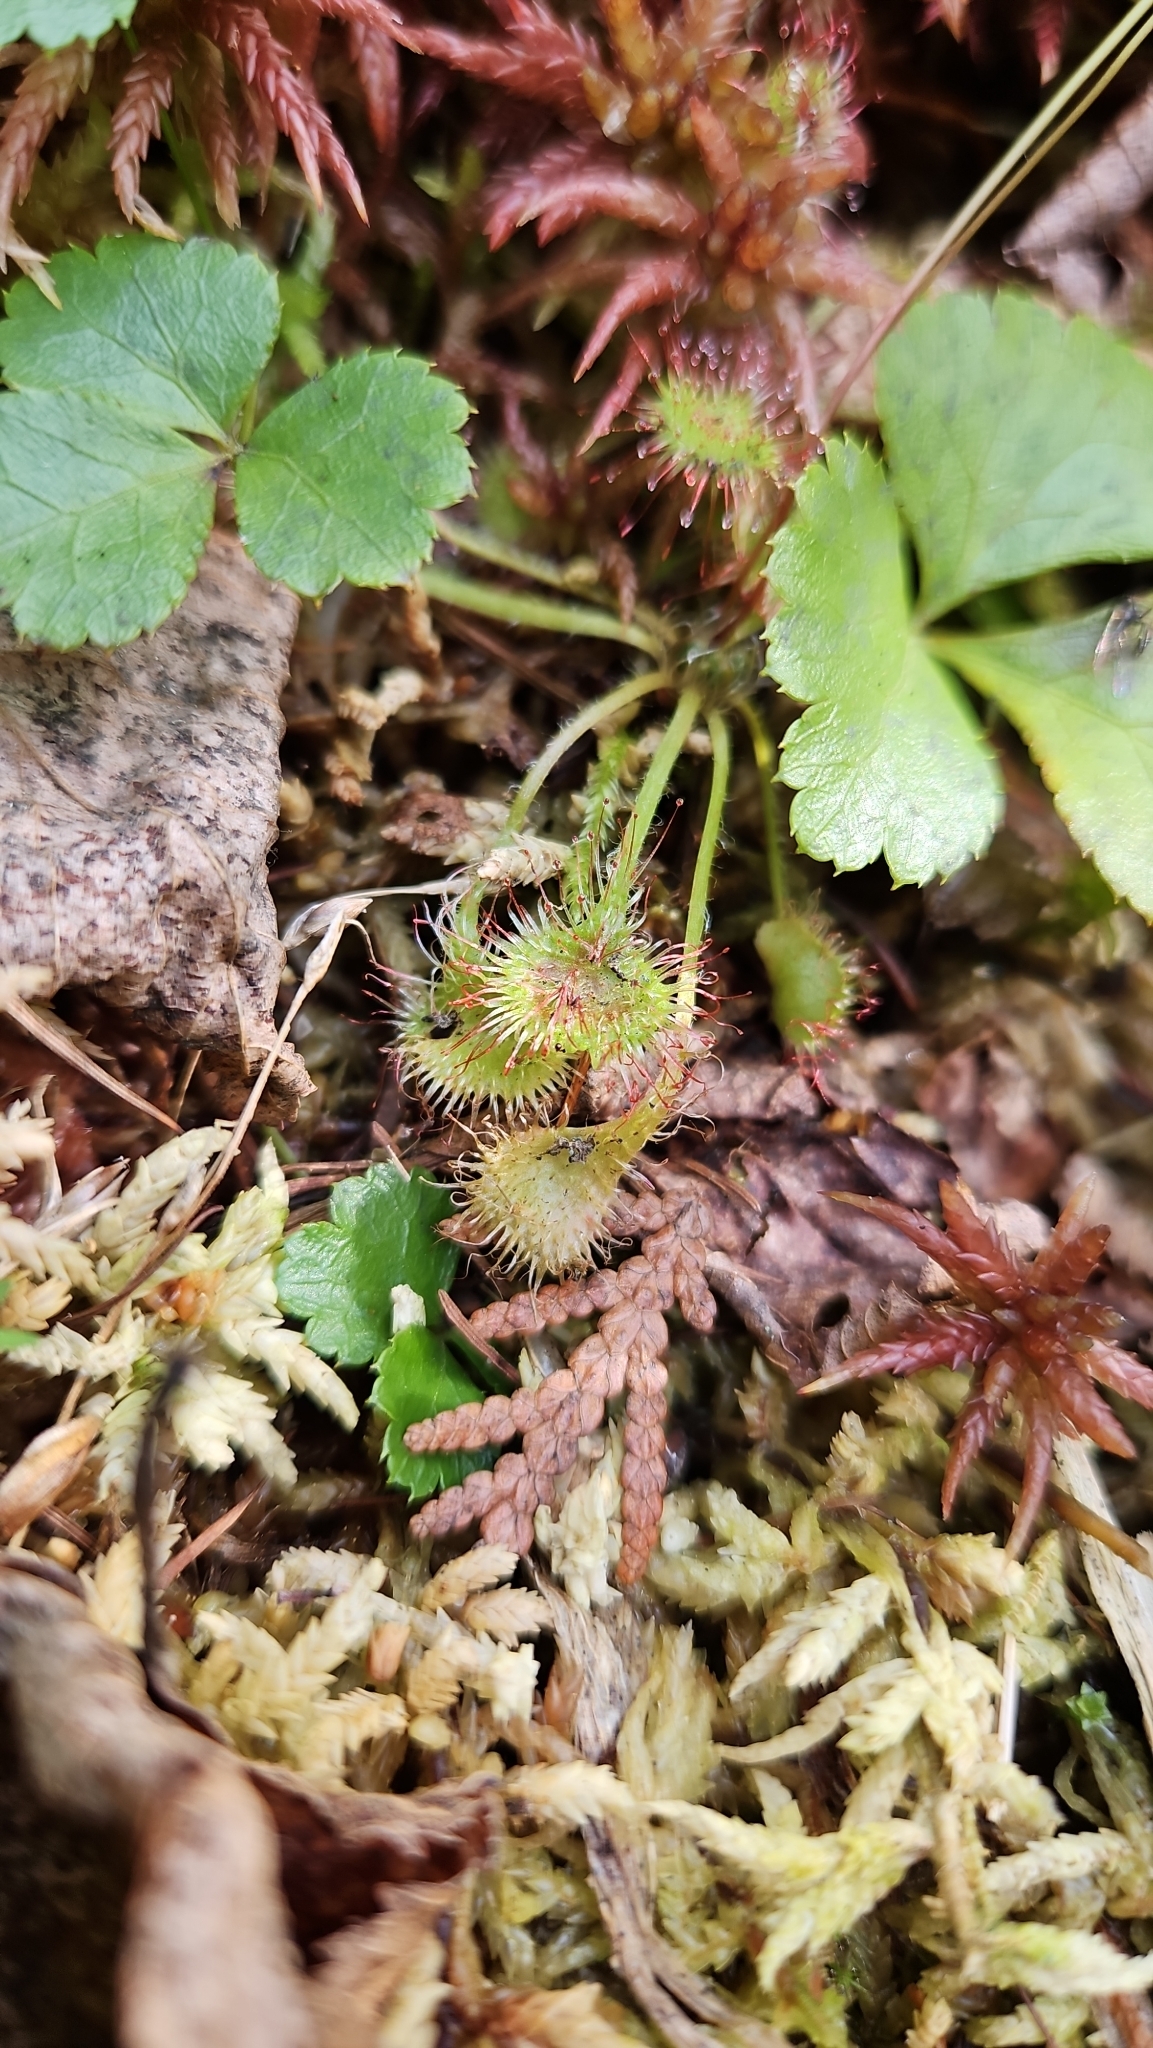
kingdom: Plantae
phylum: Tracheophyta
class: Magnoliopsida
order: Caryophyllales
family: Droseraceae
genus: Drosera
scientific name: Drosera rotundifolia
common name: Round-leaved sundew
